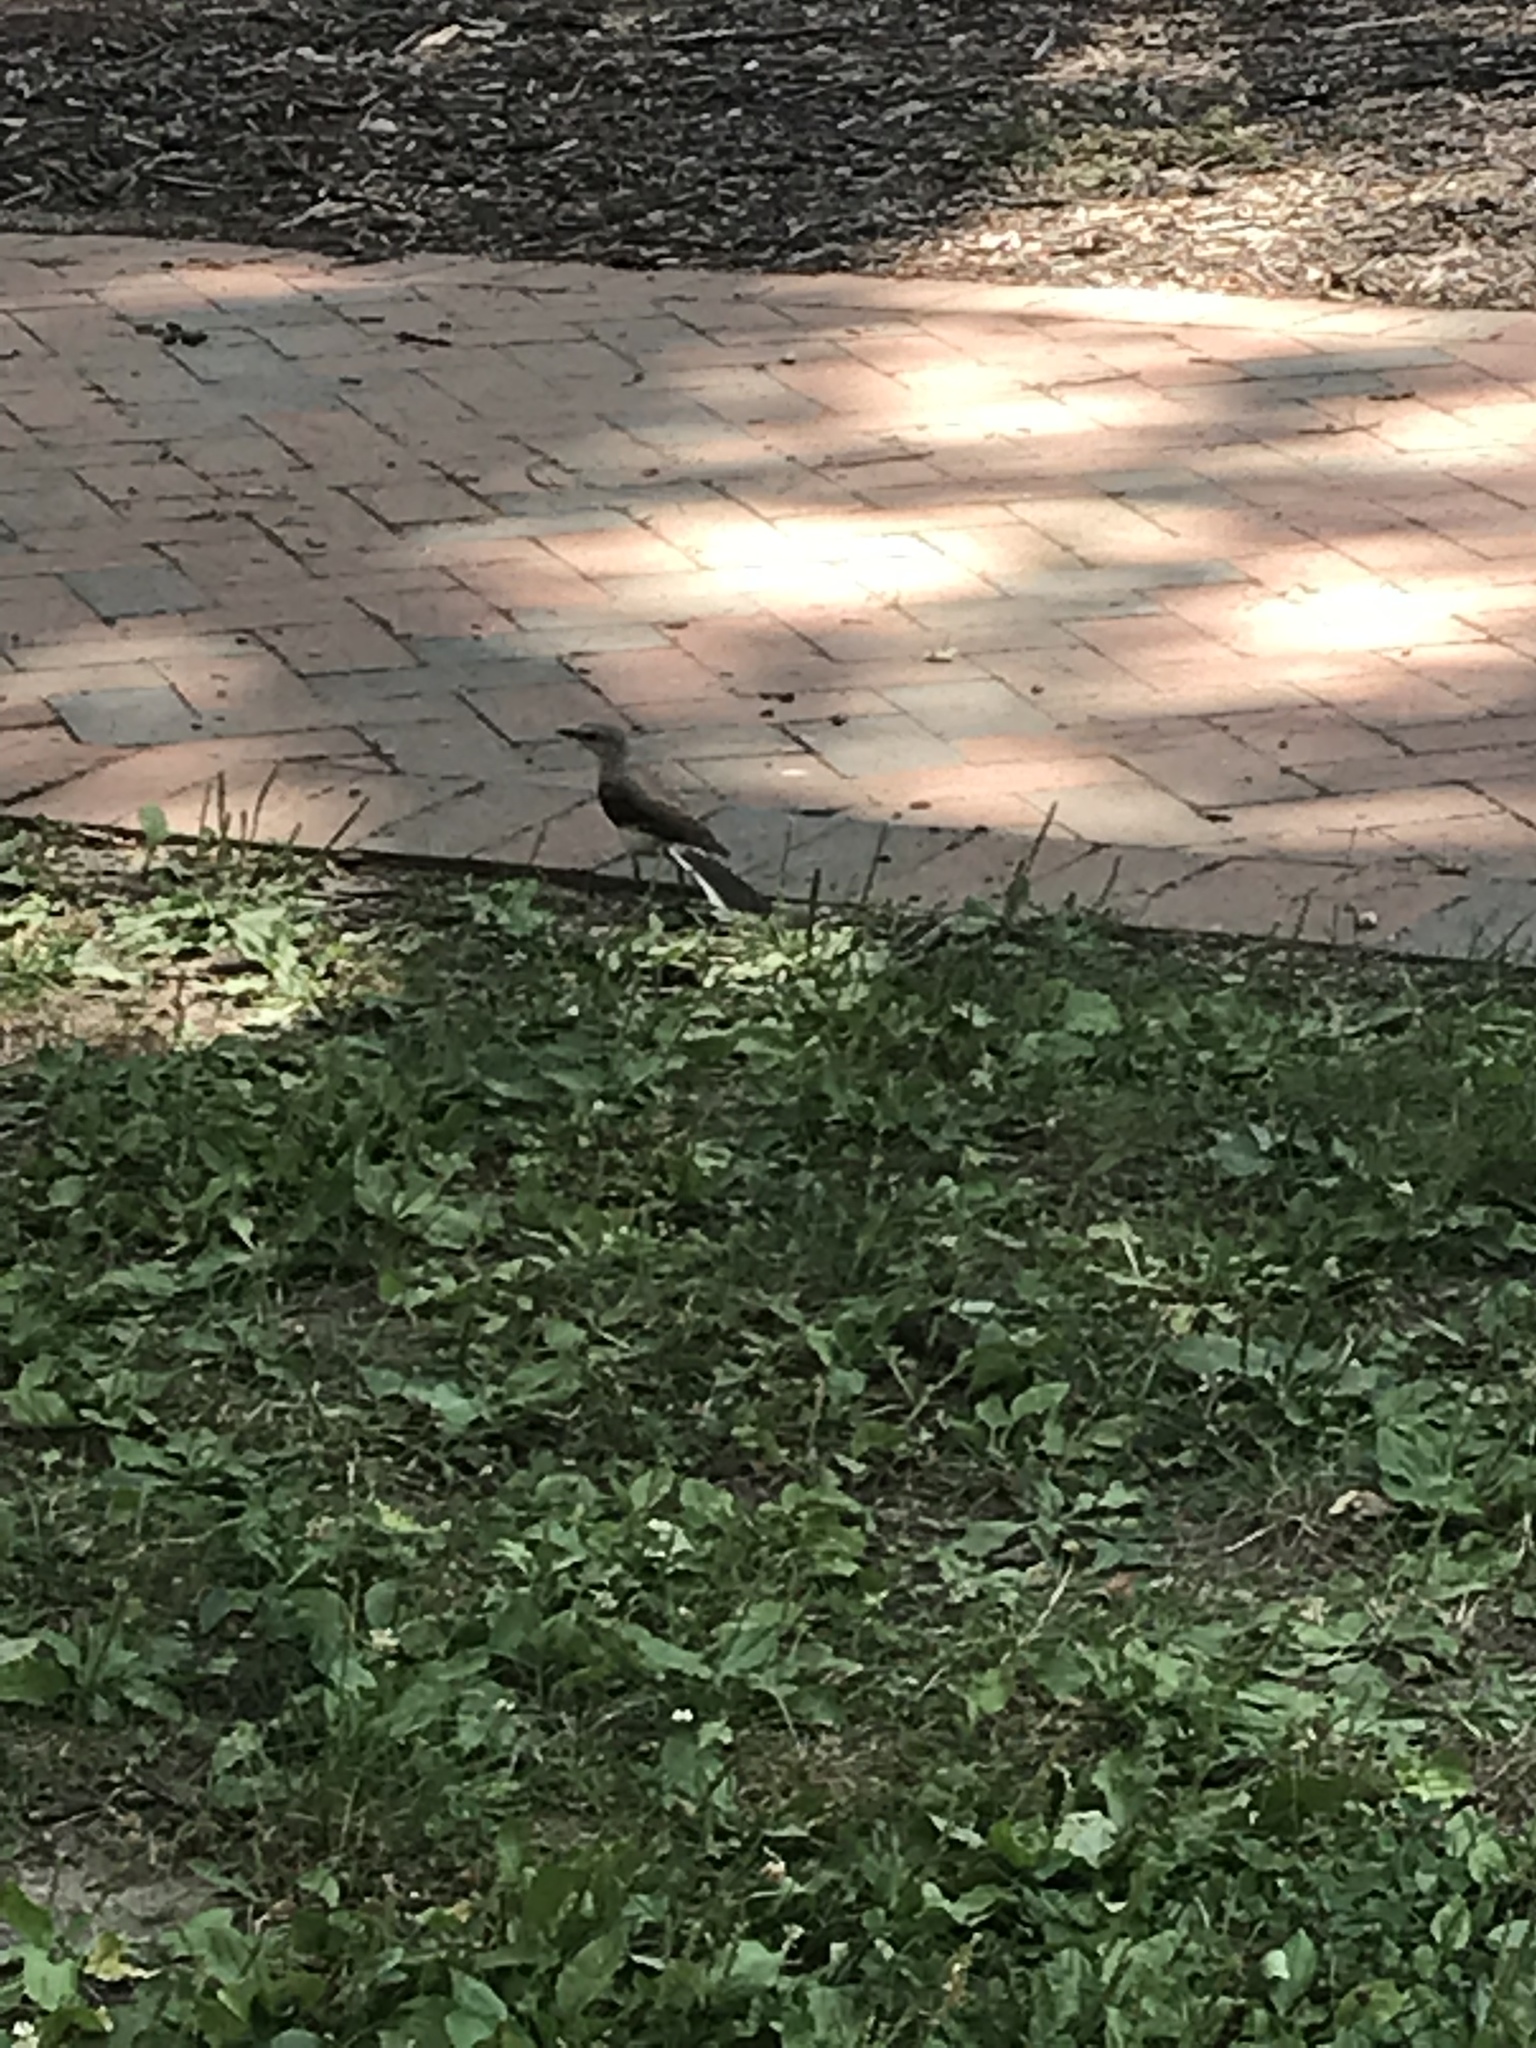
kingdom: Animalia
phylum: Chordata
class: Aves
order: Passeriformes
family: Mimidae
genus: Mimus
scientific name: Mimus polyglottos
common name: Northern mockingbird
